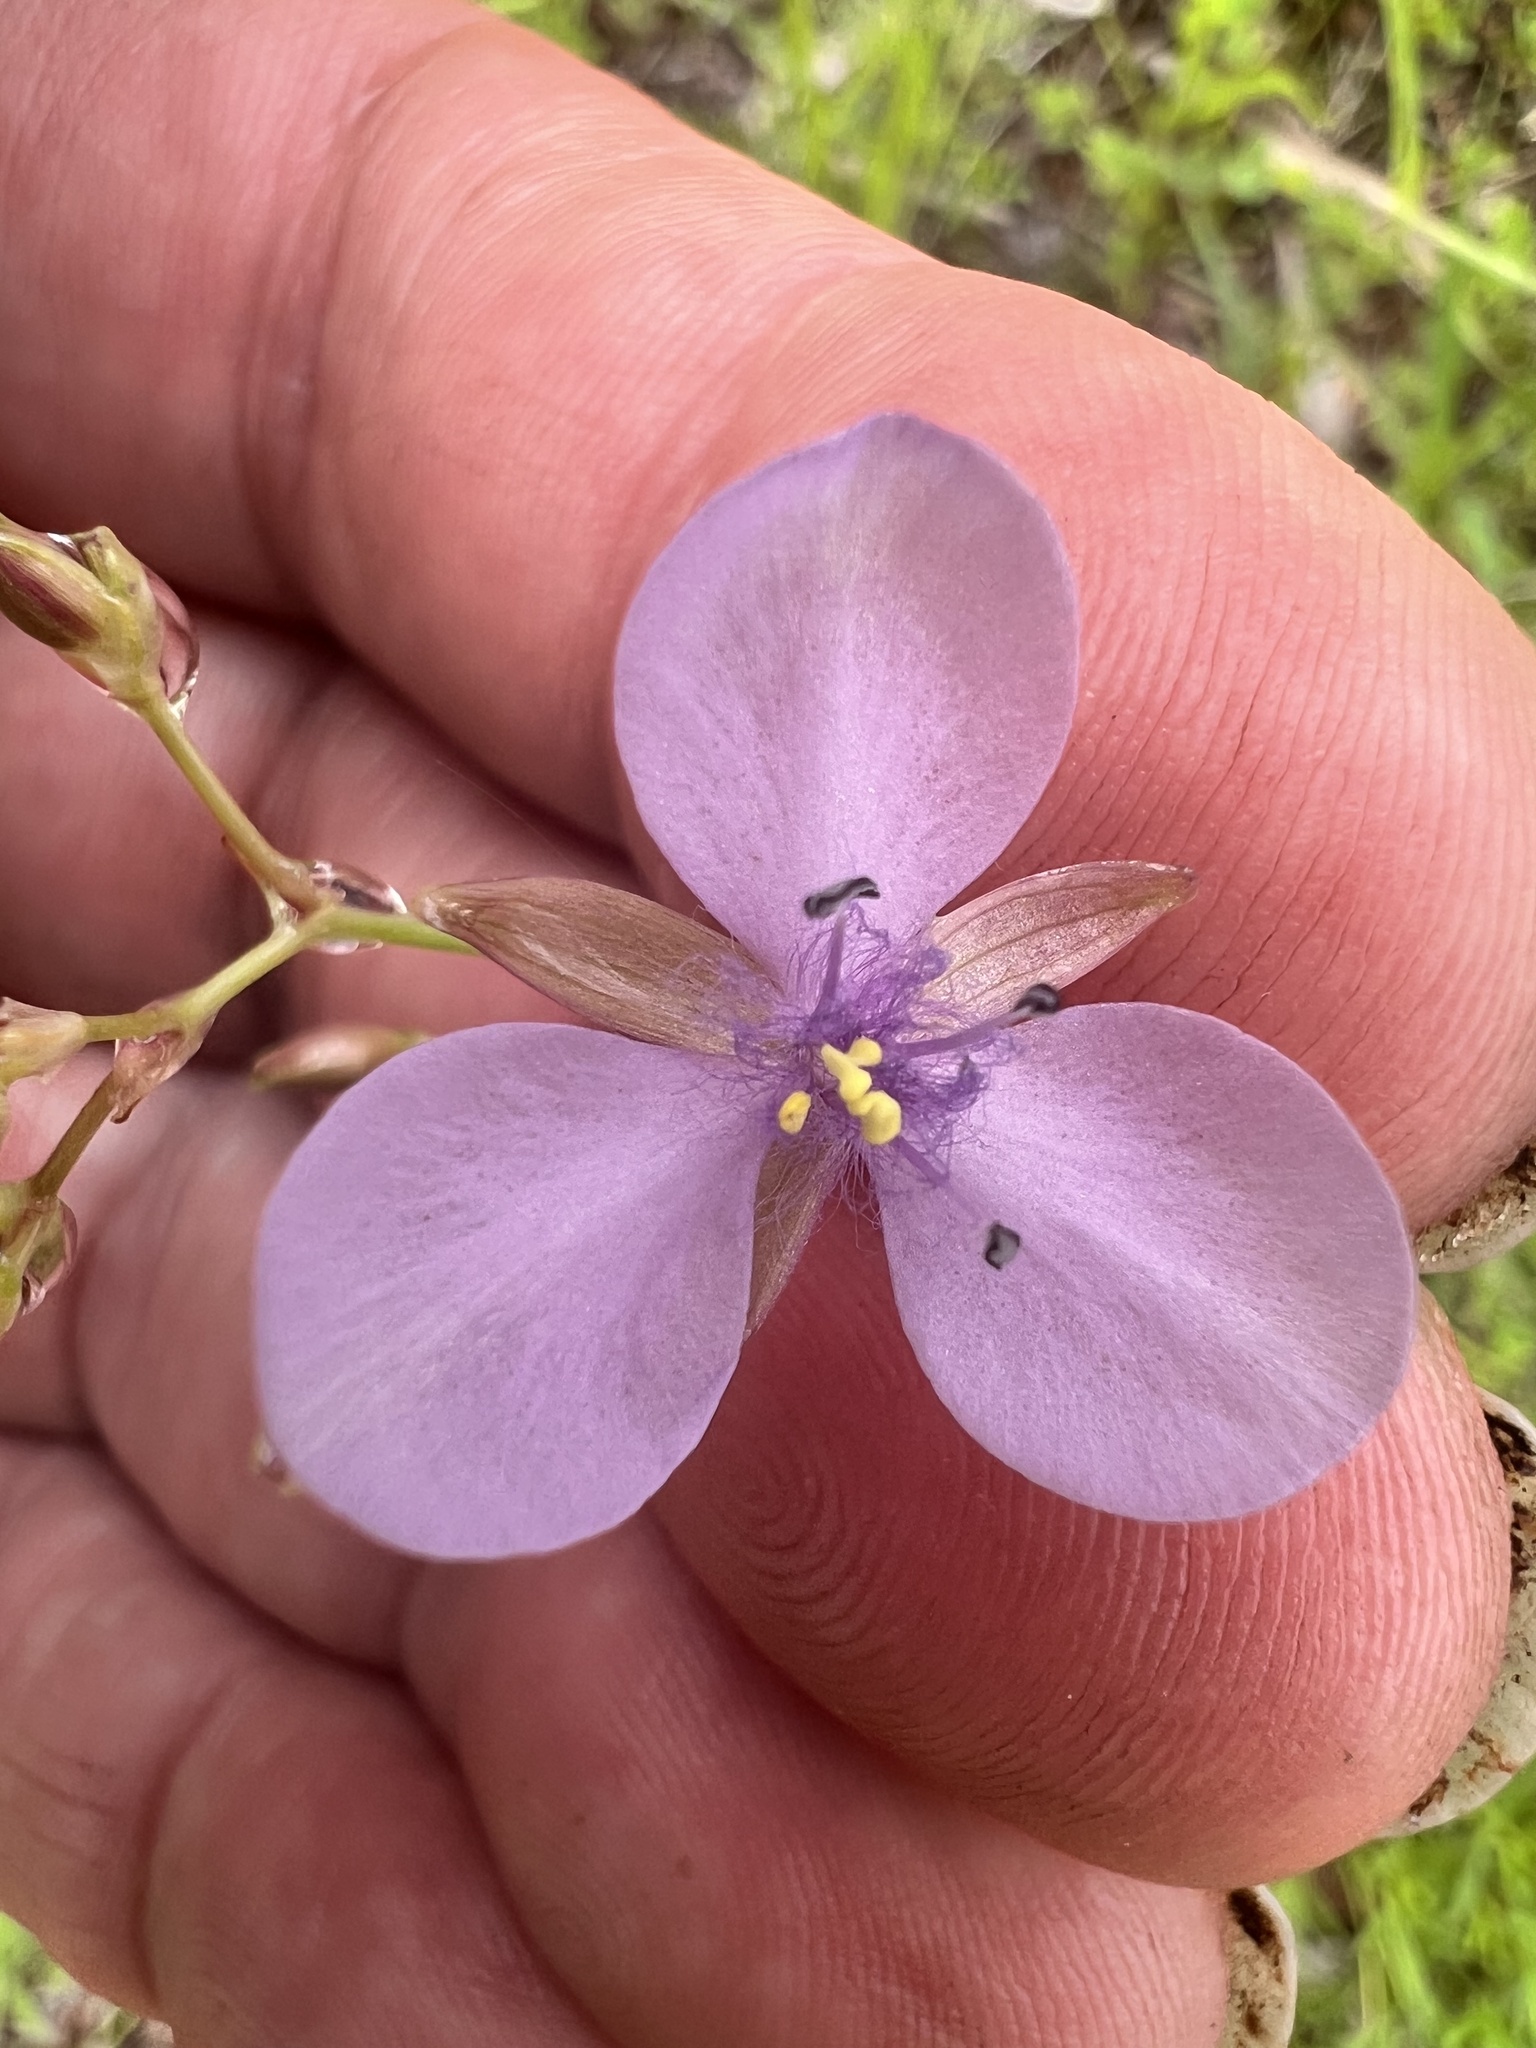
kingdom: Plantae
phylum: Tracheophyta
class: Liliopsida
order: Commelinales
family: Commelinaceae
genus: Murdannia
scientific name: Murdannia graminea
